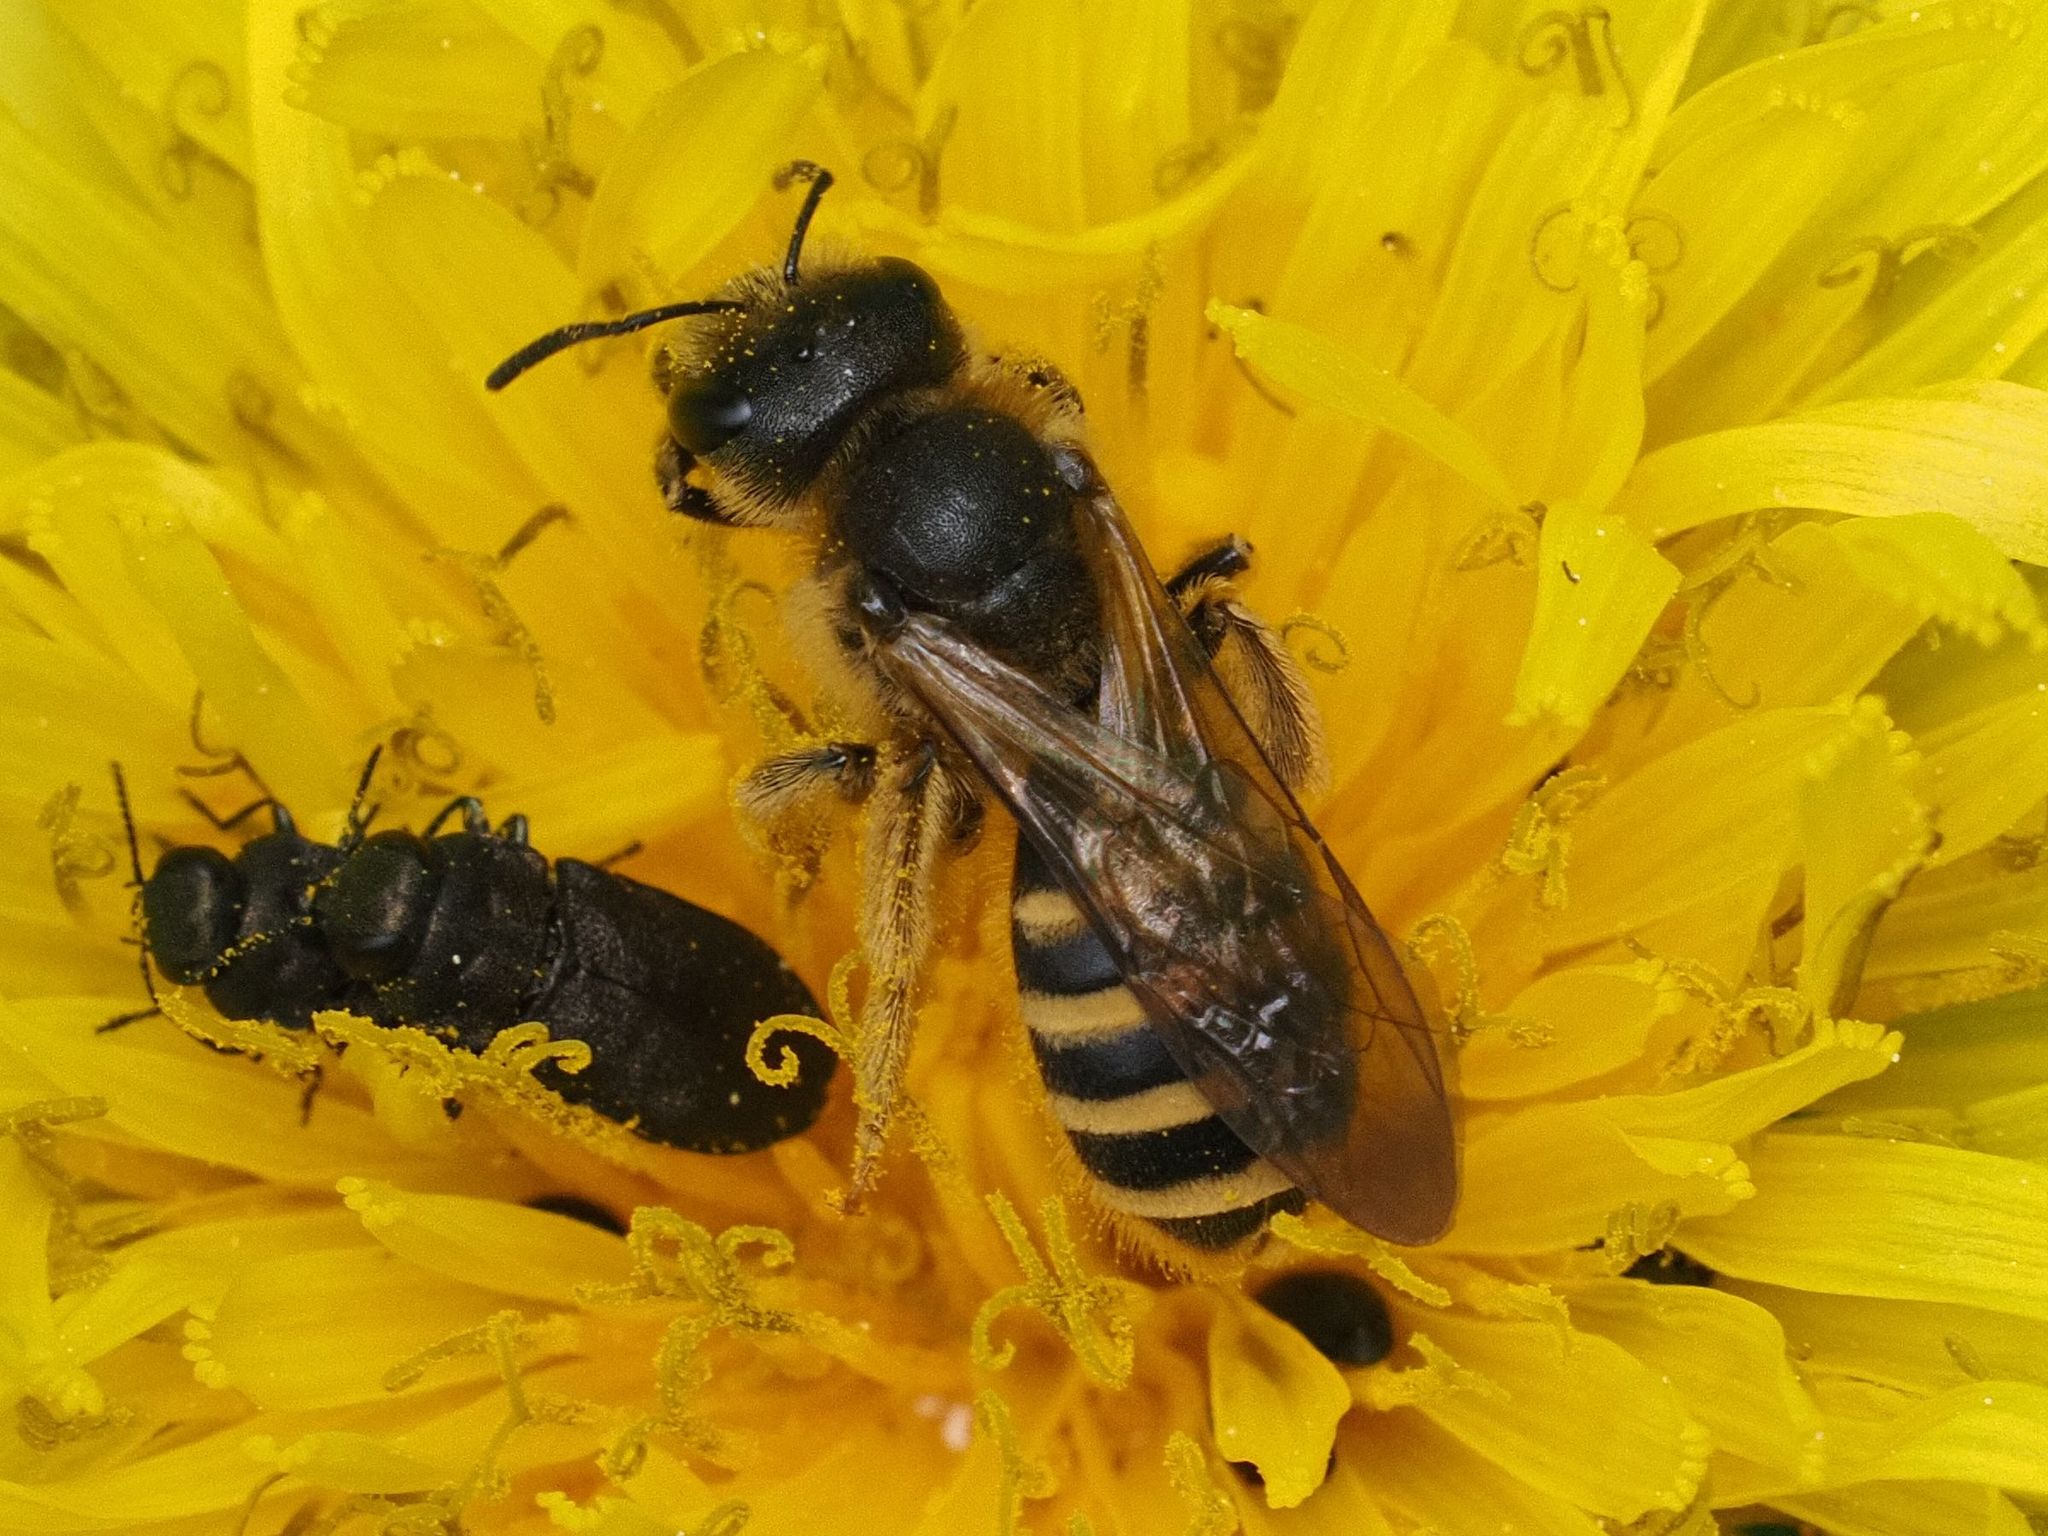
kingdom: Animalia
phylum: Arthropoda
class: Insecta
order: Hymenoptera
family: Halictidae
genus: Halictus
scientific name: Halictus scabiosae
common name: Great banded furrow bee
